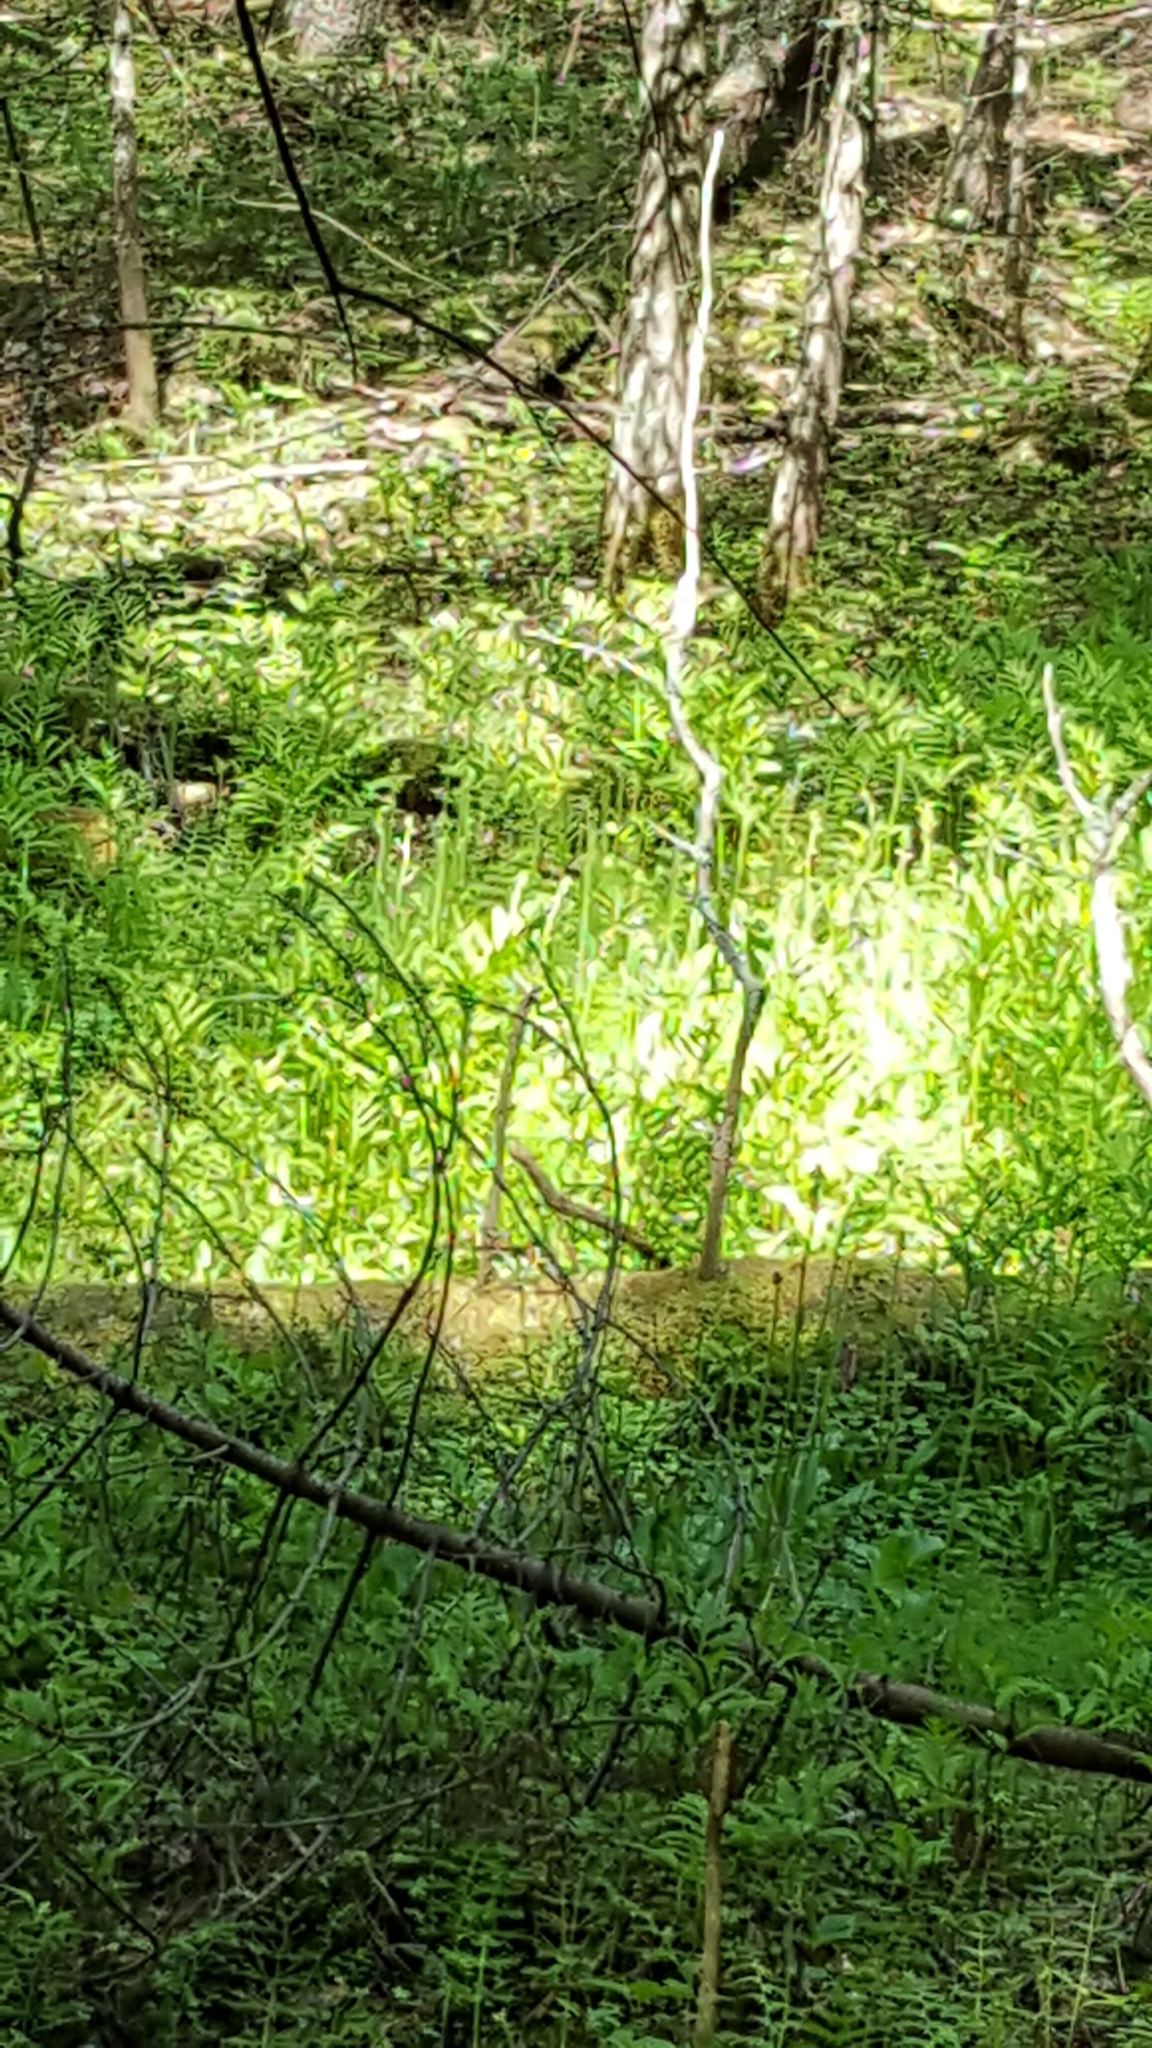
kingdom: Plantae
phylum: Tracheophyta
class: Polypodiopsida
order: Polypodiales
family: Onocleaceae
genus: Onoclea
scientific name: Onoclea sensibilis
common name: Sensitive fern
